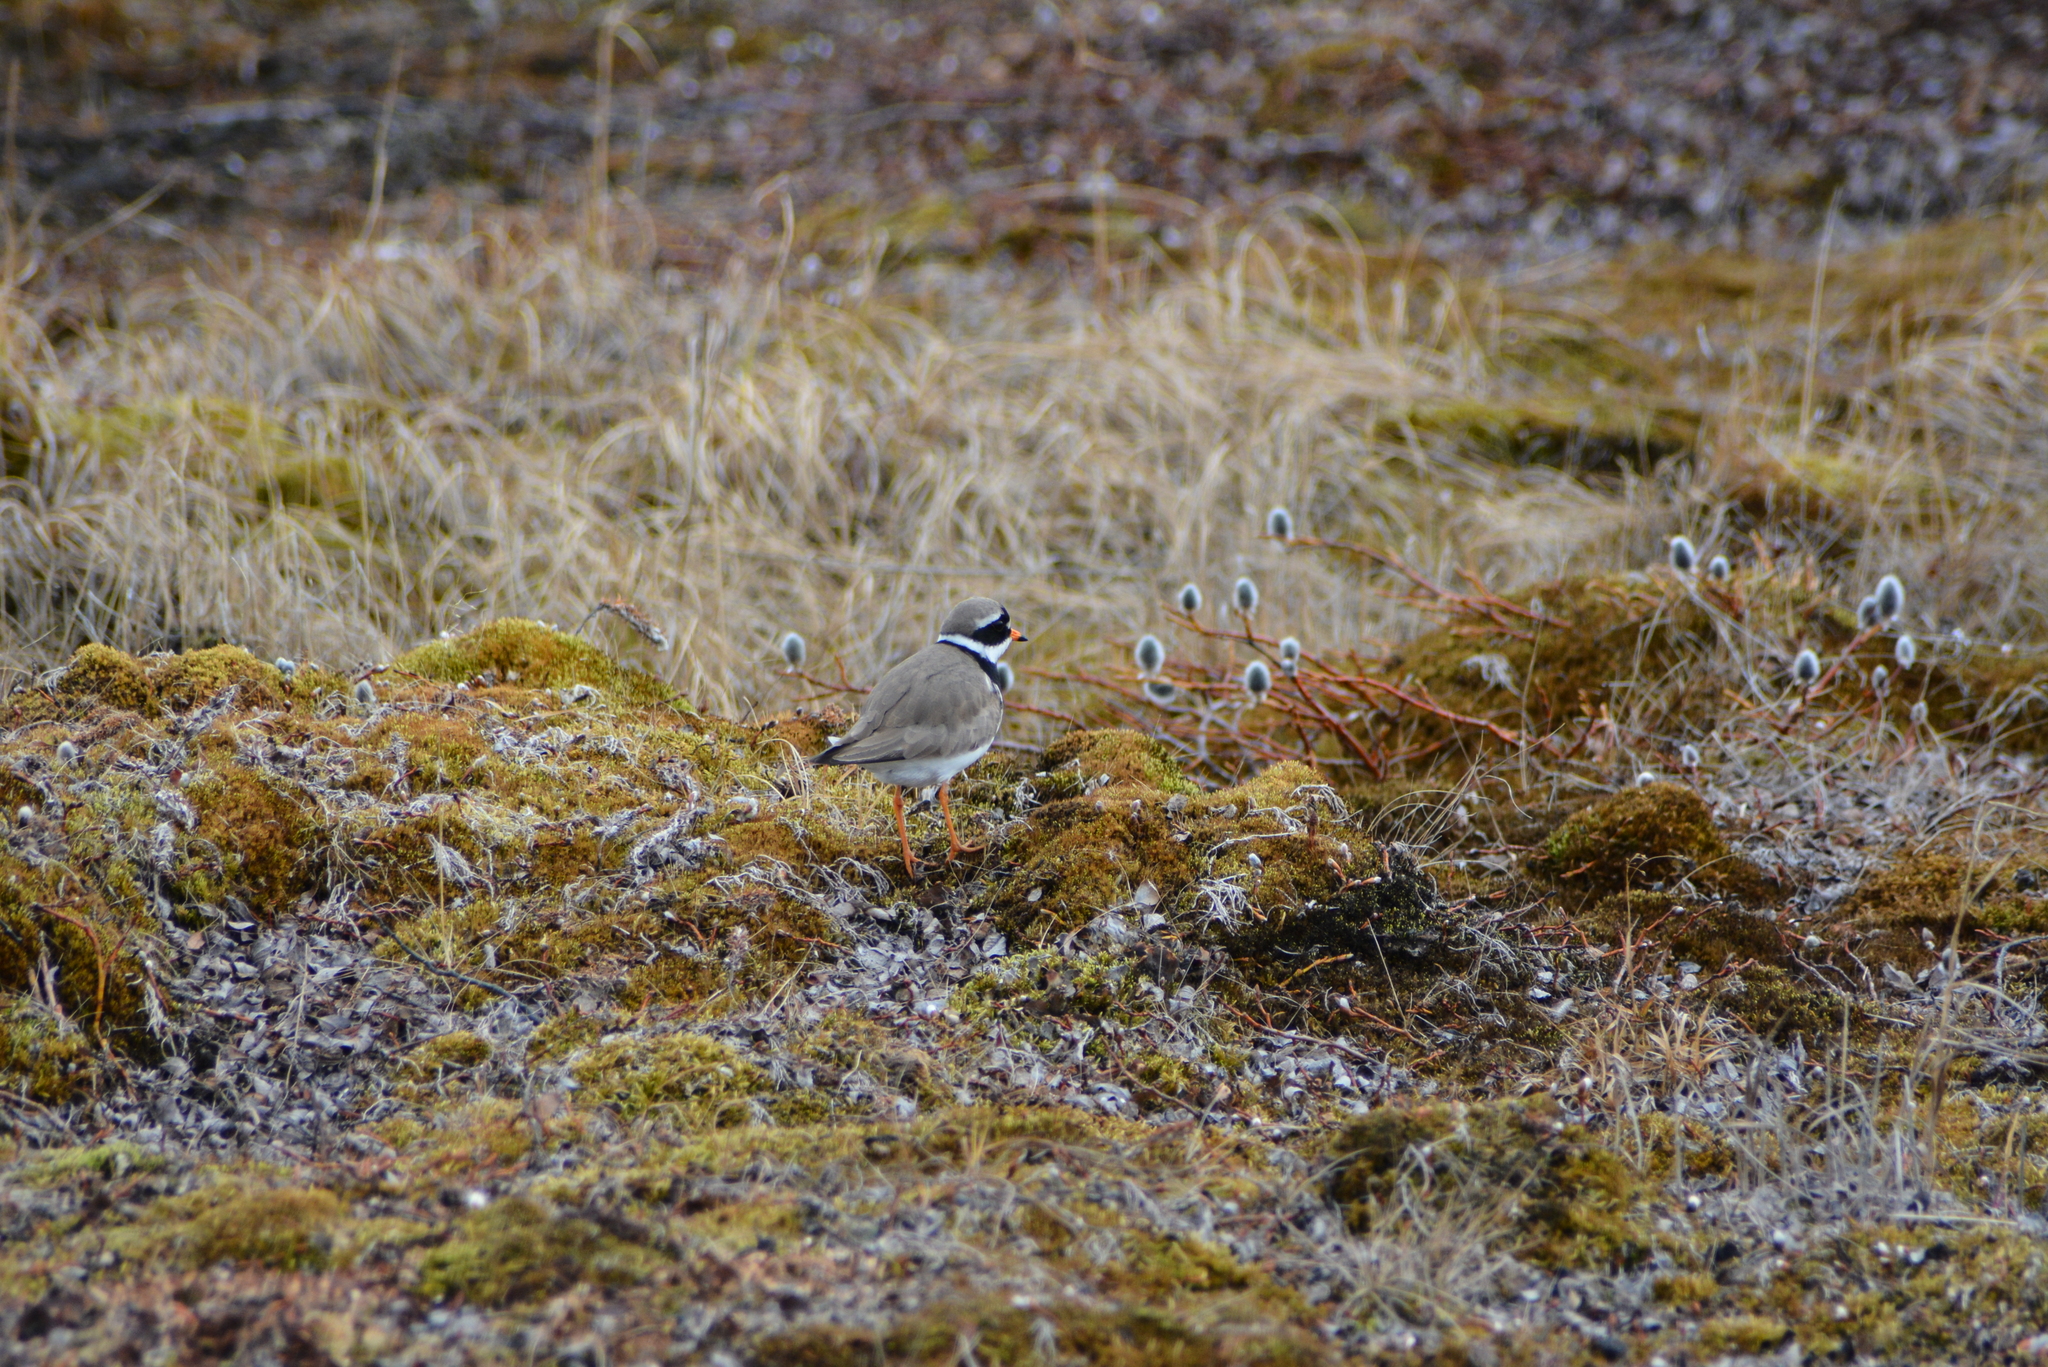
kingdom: Animalia
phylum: Chordata
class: Aves
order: Charadriiformes
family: Charadriidae
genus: Charadrius
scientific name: Charadrius hiaticula
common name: Common ringed plover
